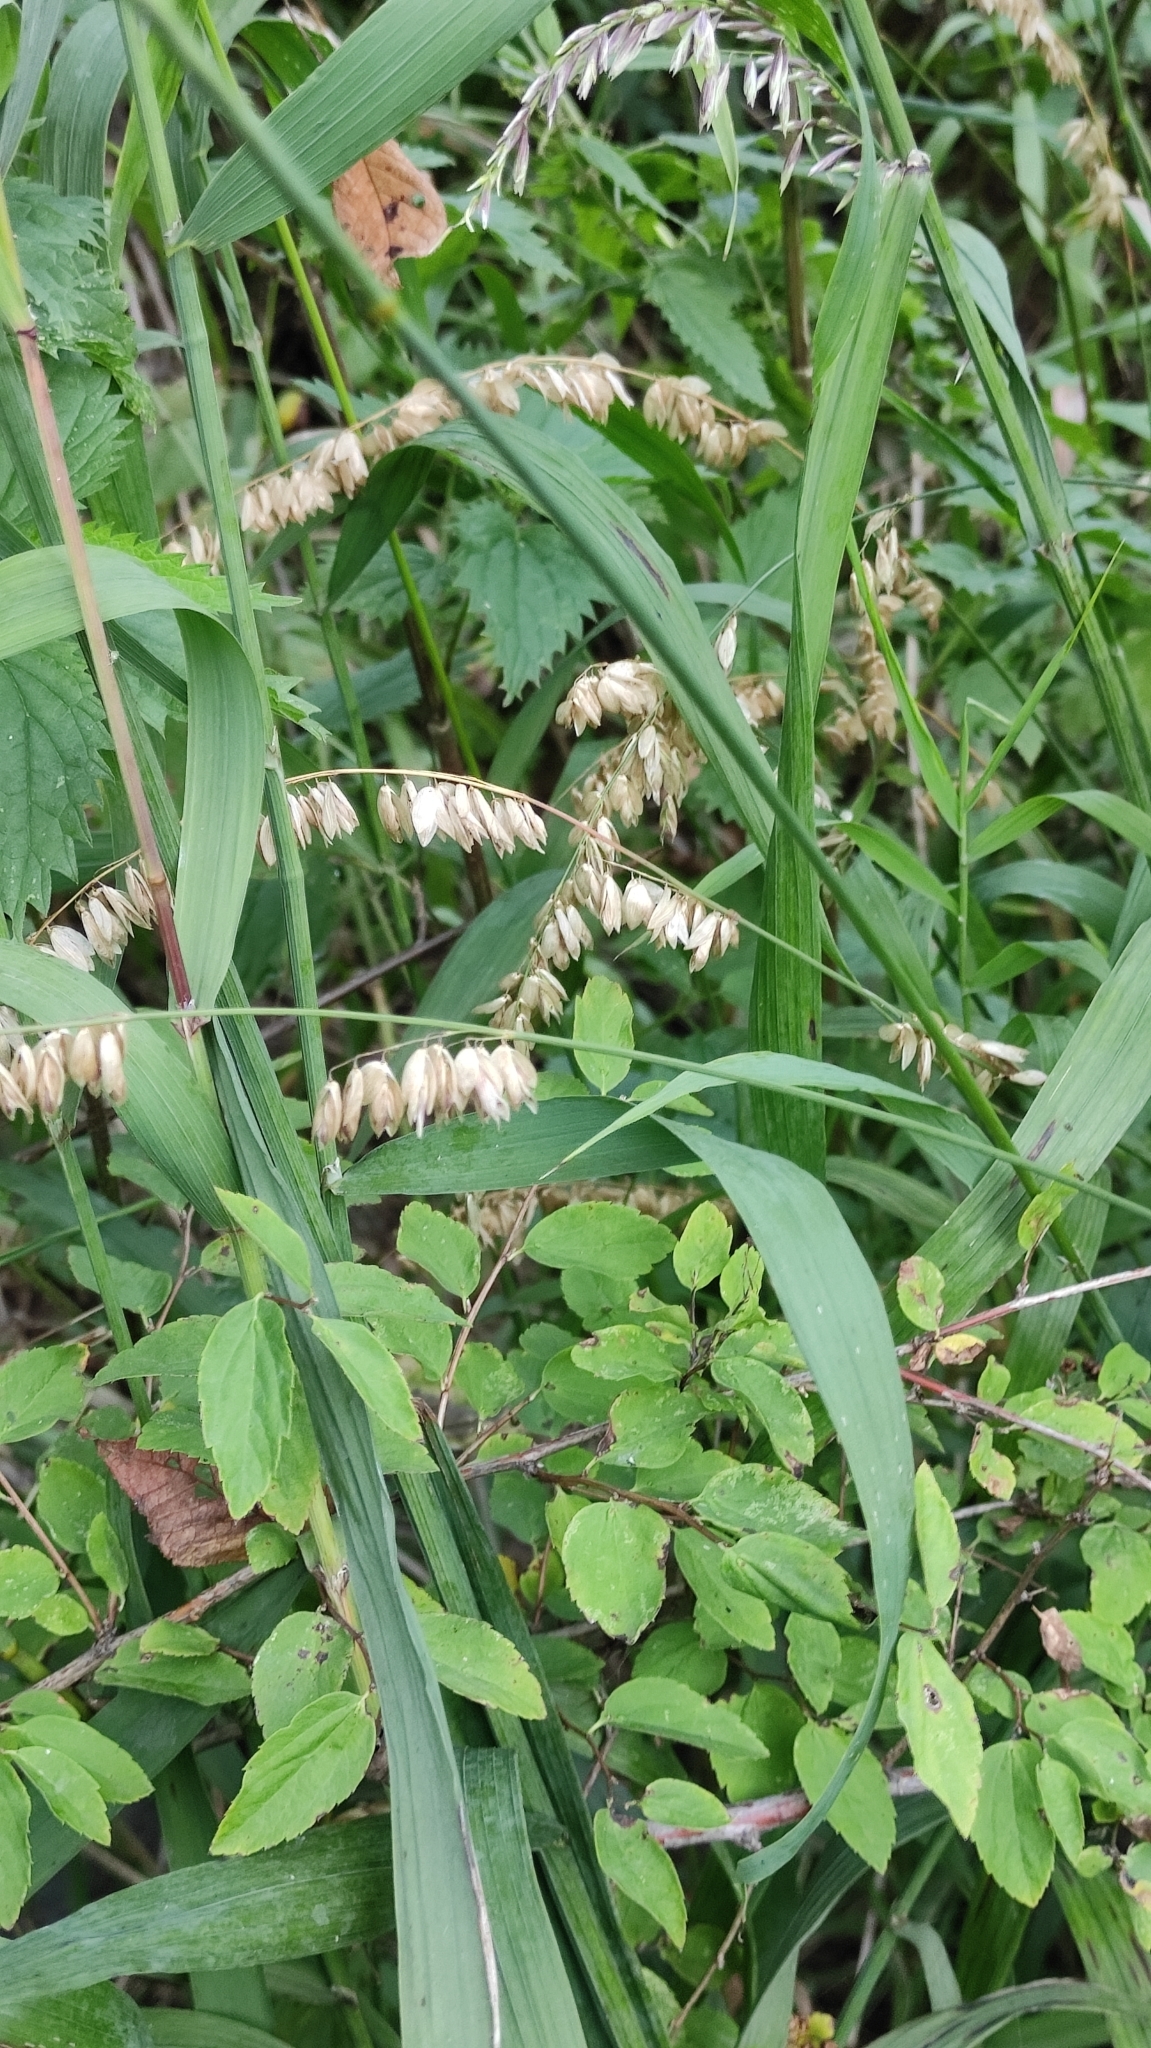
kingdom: Plantae
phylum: Tracheophyta
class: Liliopsida
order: Poales
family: Poaceae
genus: Melica
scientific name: Melica altissima
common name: Siberian melicgrass
